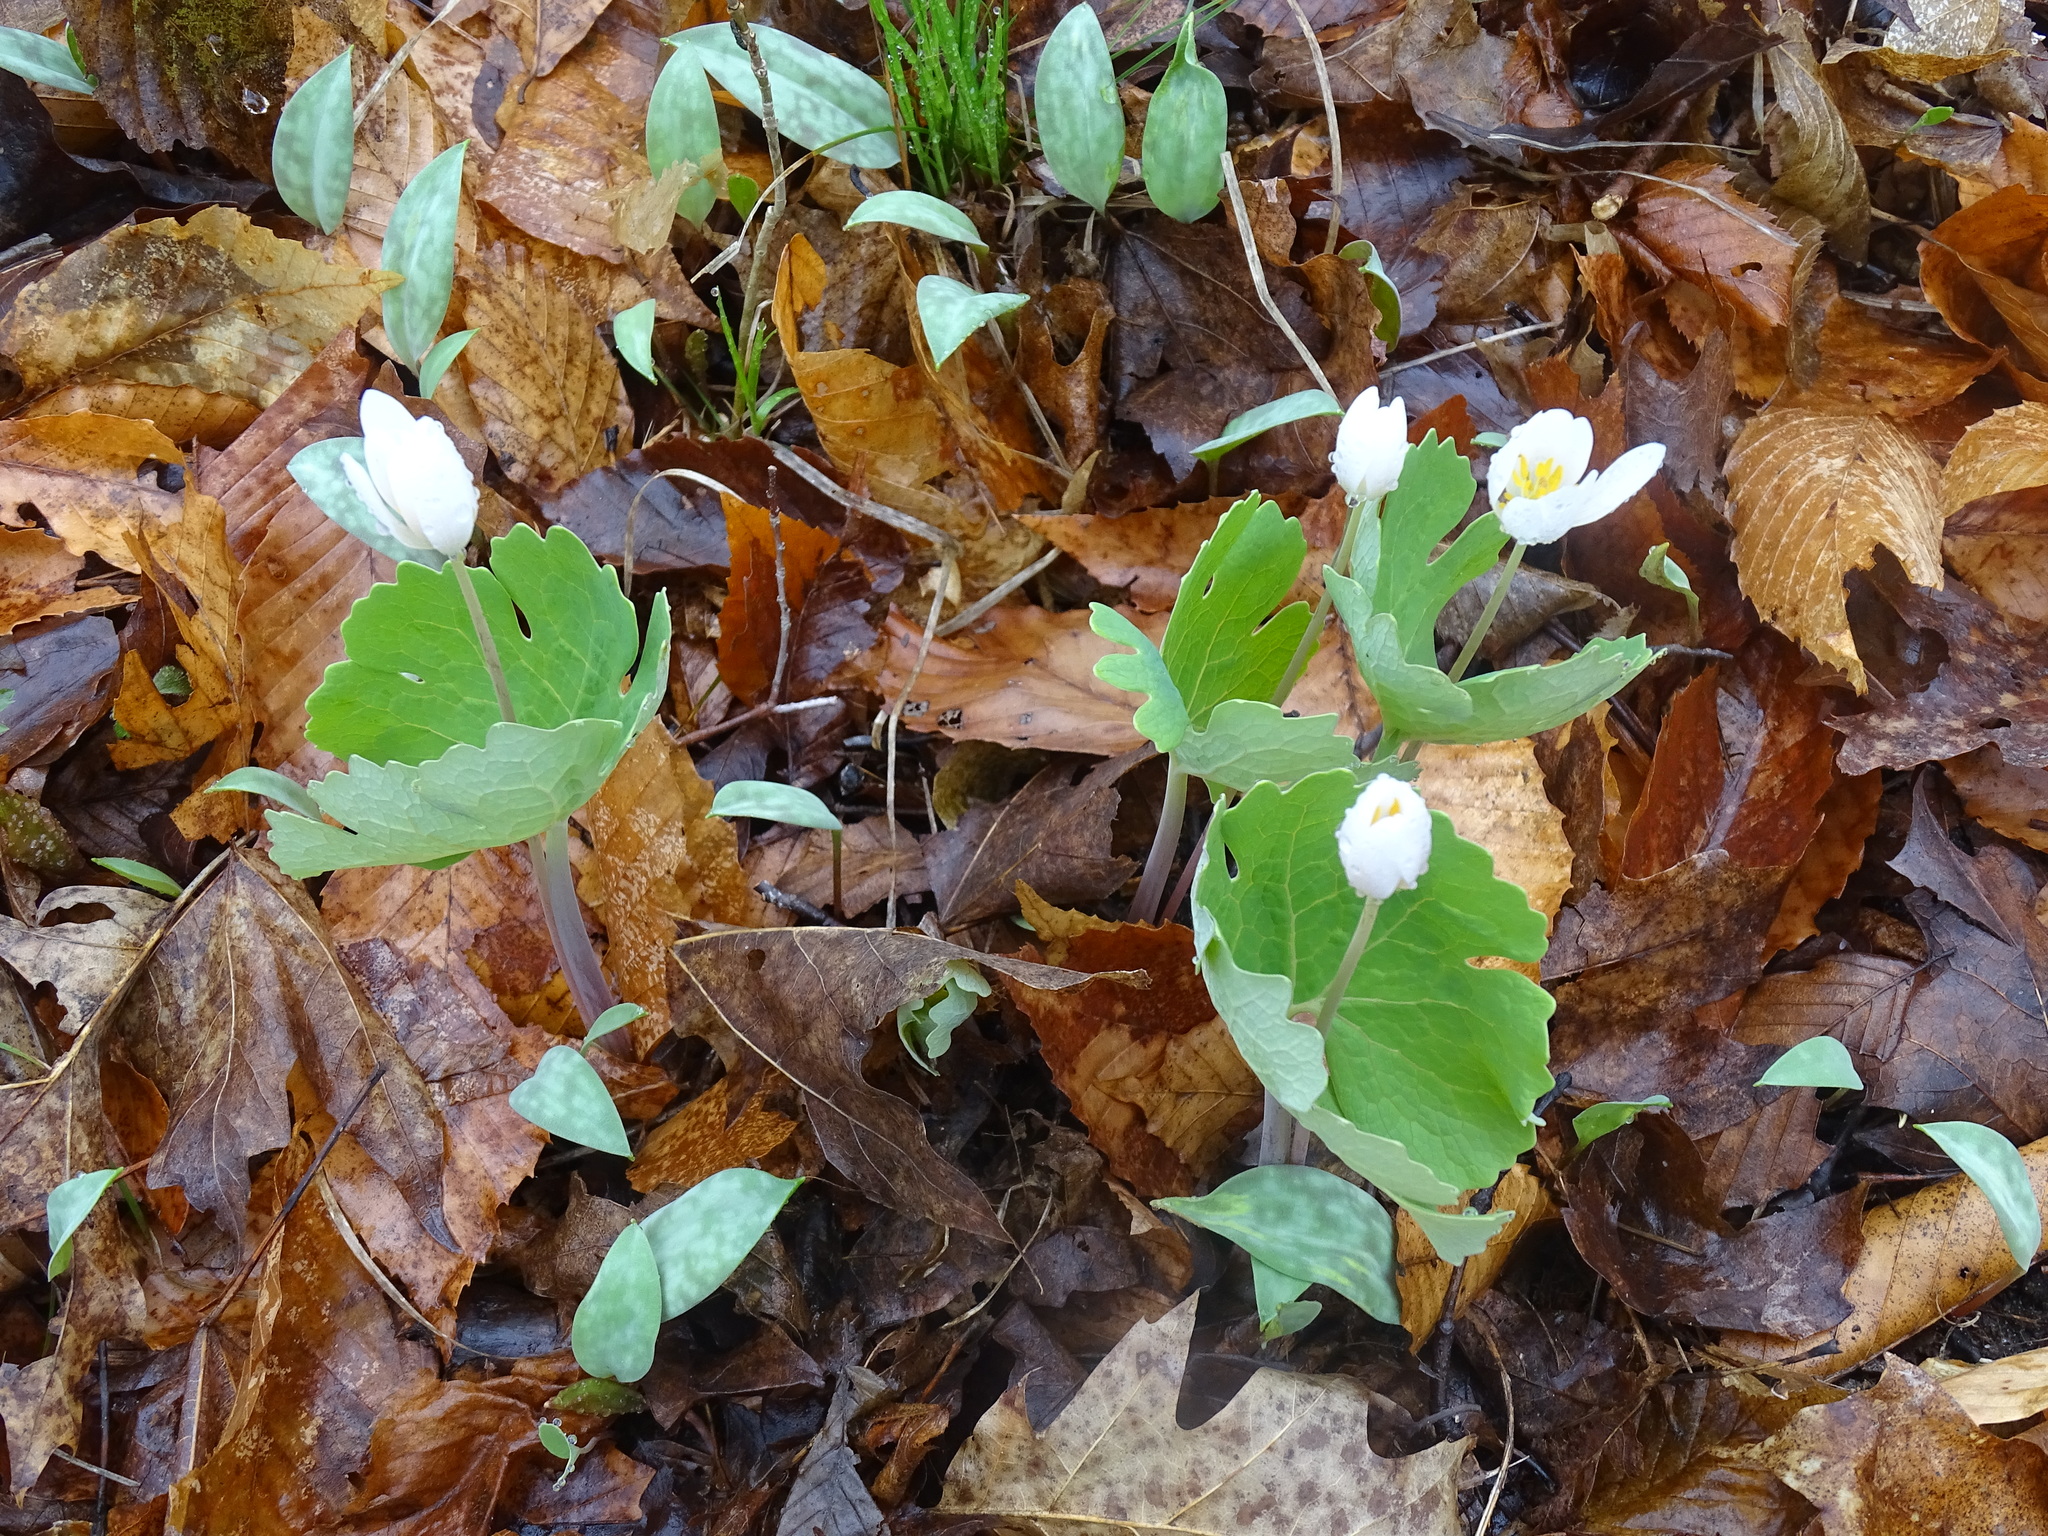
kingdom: Plantae
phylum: Tracheophyta
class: Magnoliopsida
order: Ranunculales
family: Papaveraceae
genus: Sanguinaria
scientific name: Sanguinaria canadensis
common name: Bloodroot
